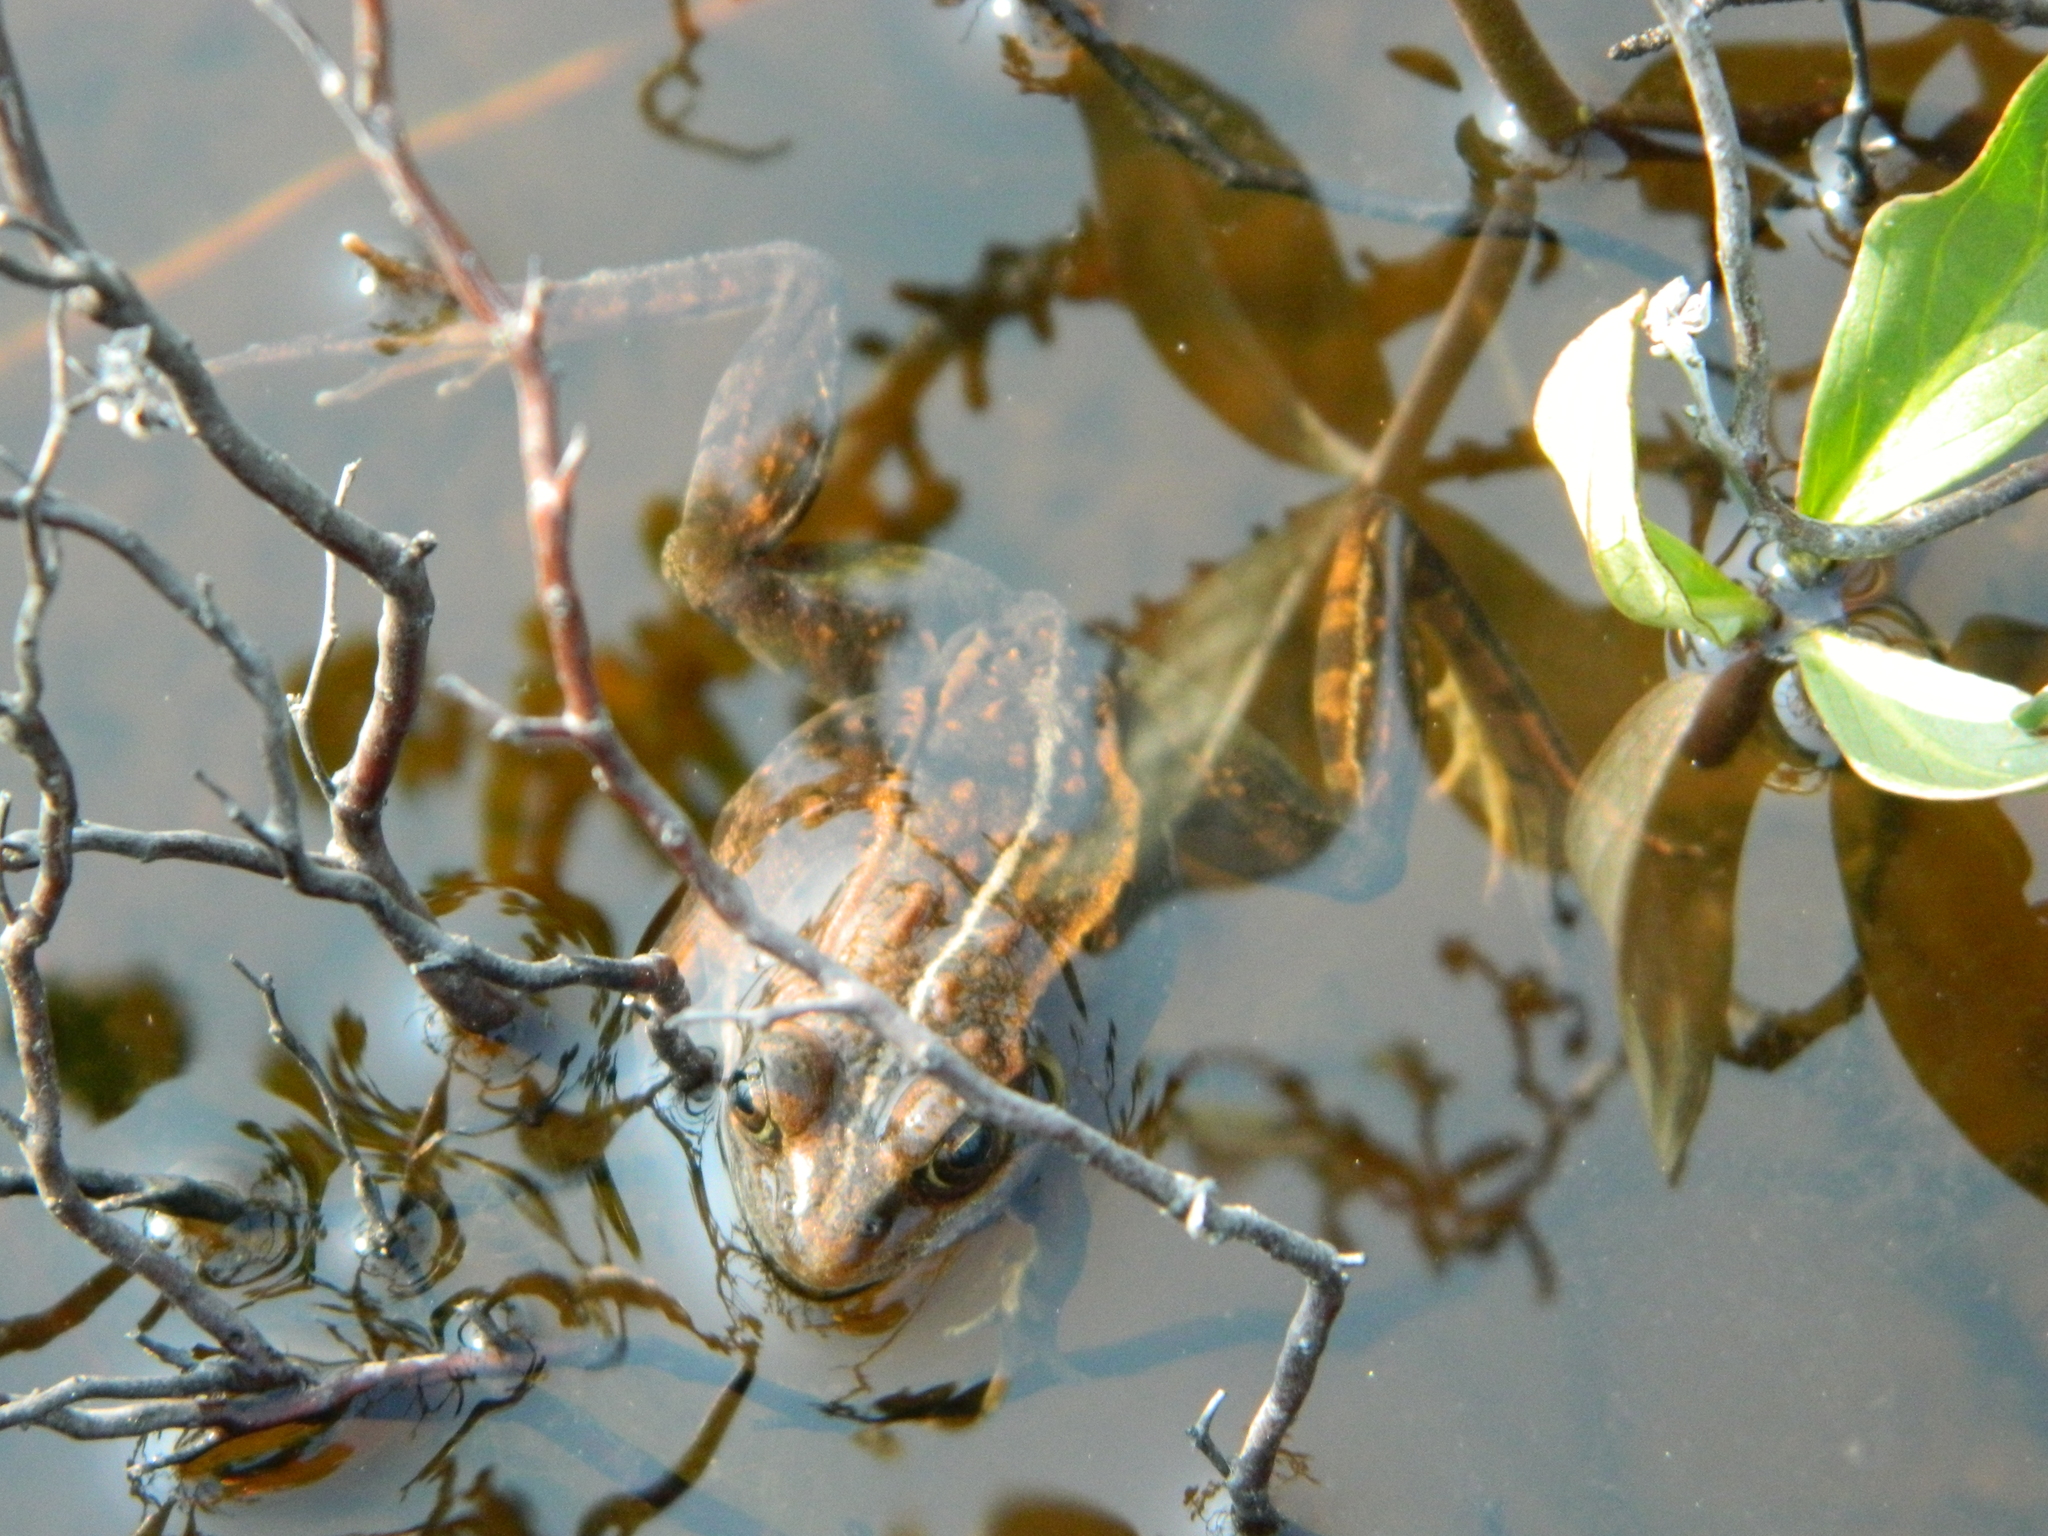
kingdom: Animalia
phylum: Chordata
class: Amphibia
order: Anura
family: Ranidae
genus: Lithobates
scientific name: Lithobates sylvaticus
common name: Wood frog
